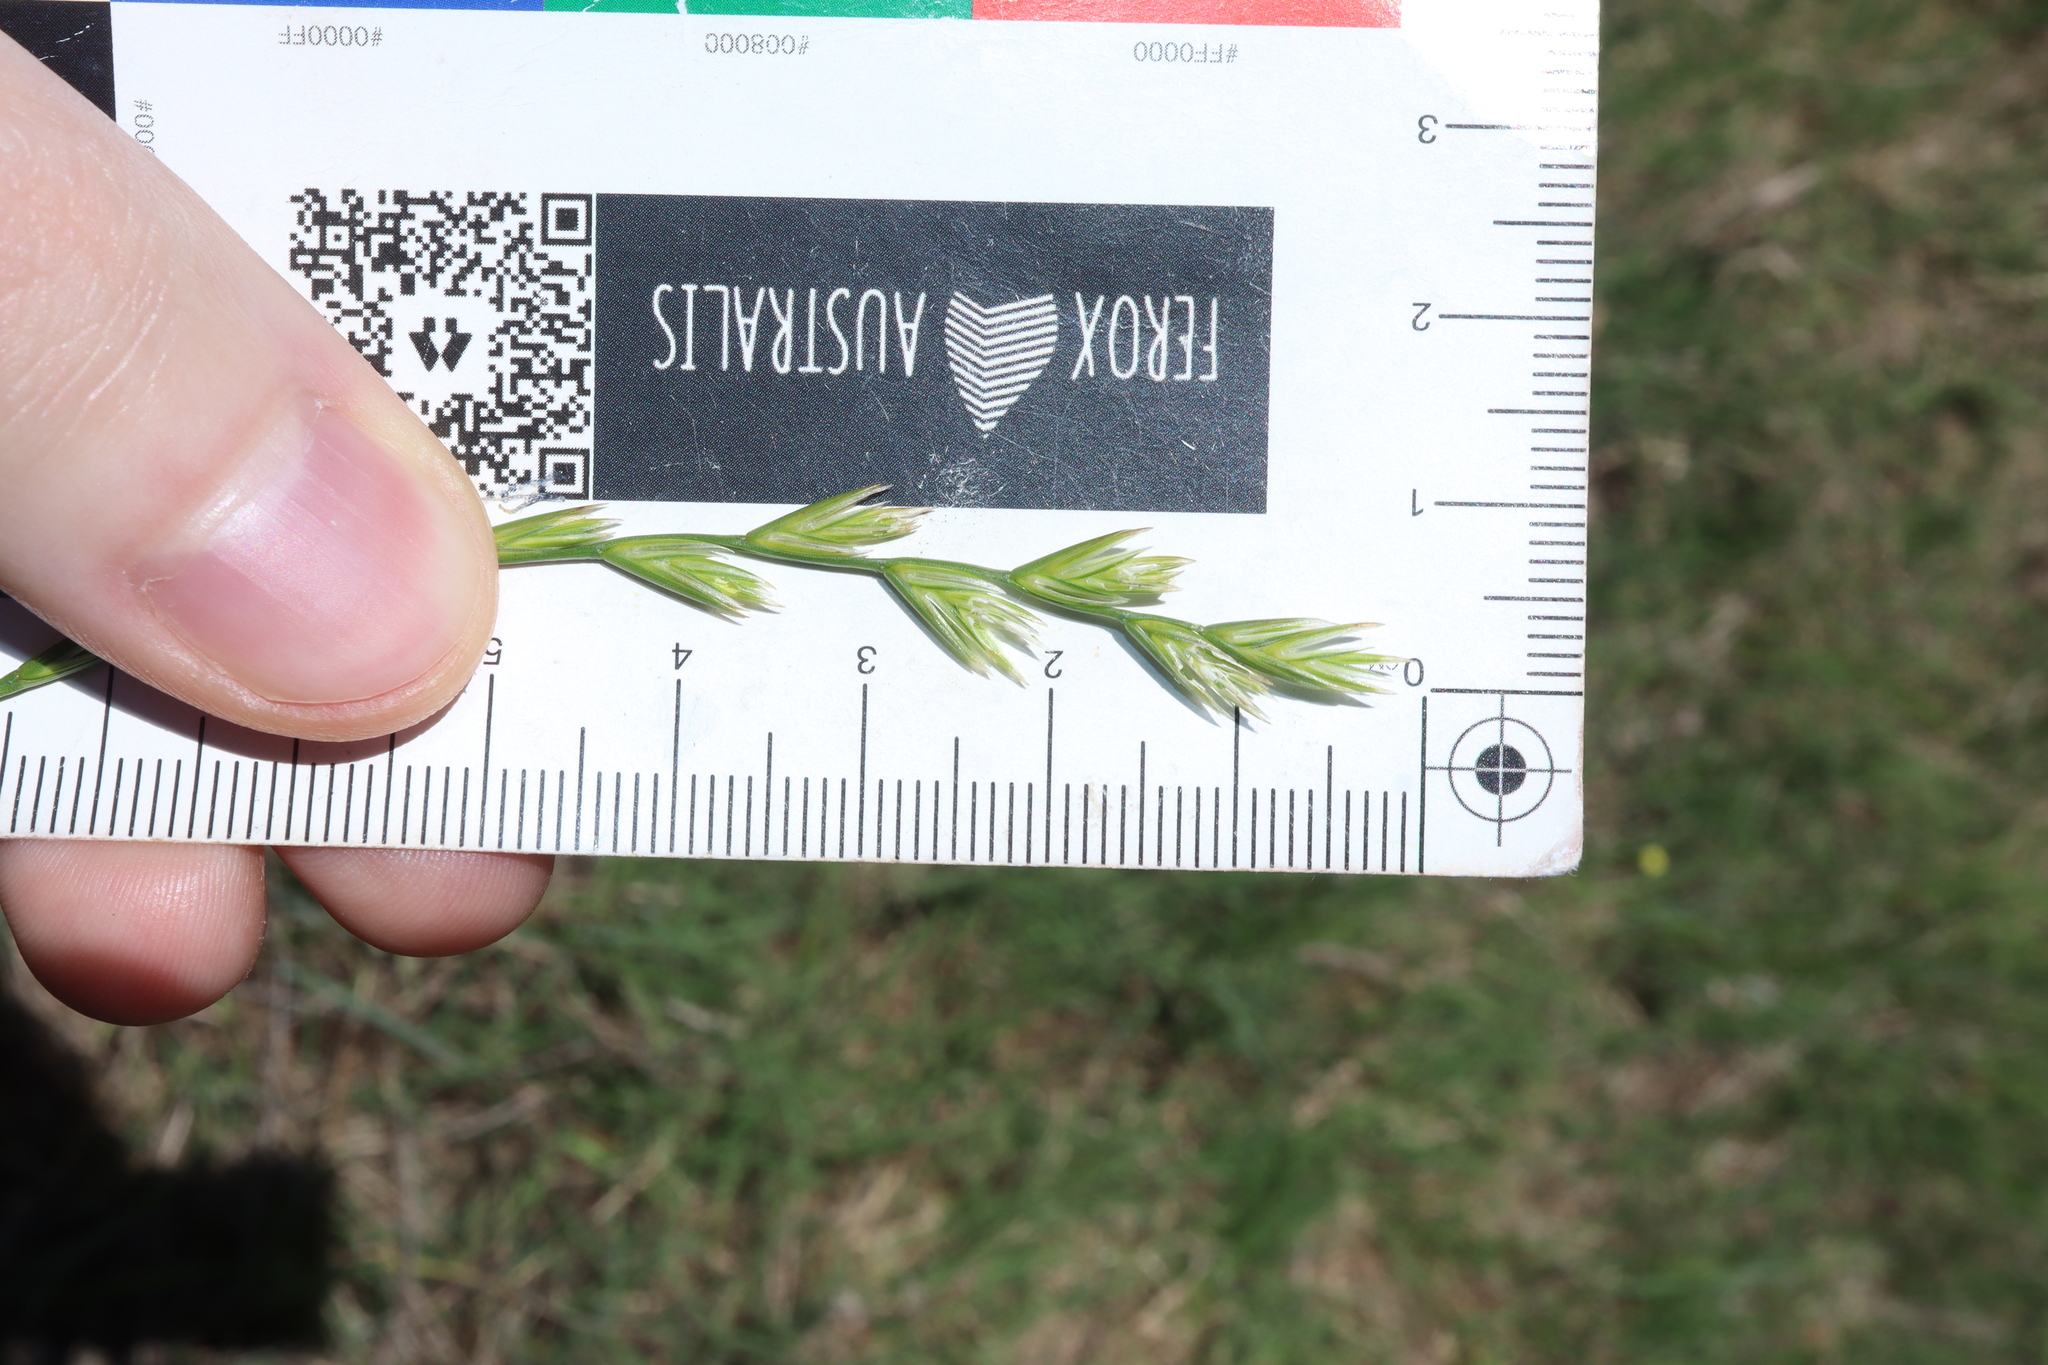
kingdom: Plantae
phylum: Tracheophyta
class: Liliopsida
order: Poales
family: Poaceae
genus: Lolium
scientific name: Lolium rigidum
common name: Wimmera ryegrass
